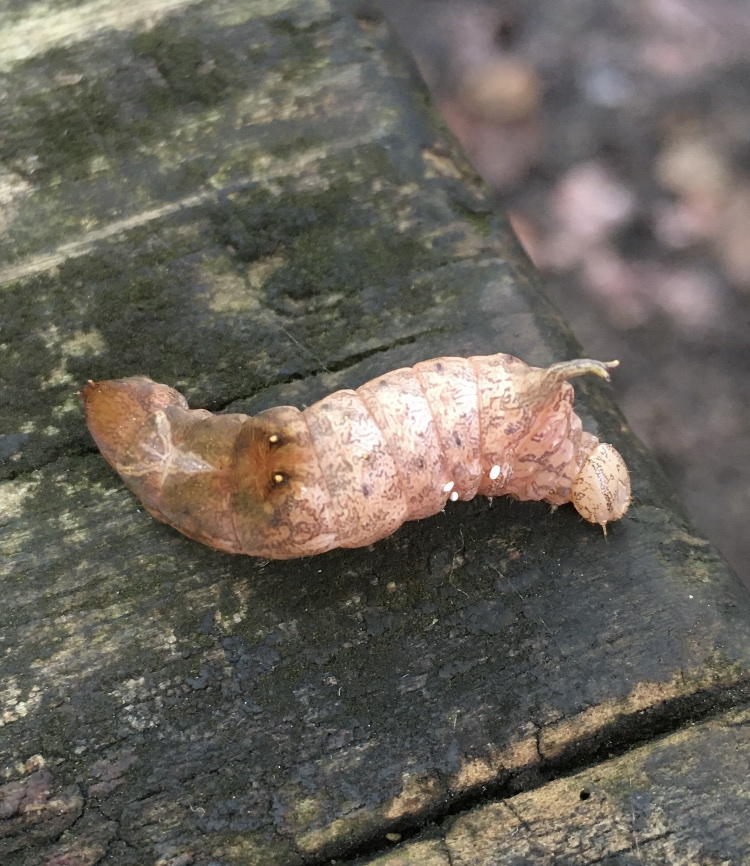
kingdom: Animalia
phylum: Arthropoda
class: Insecta
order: Lepidoptera
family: Notodontidae
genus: Schizura
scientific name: Schizura
